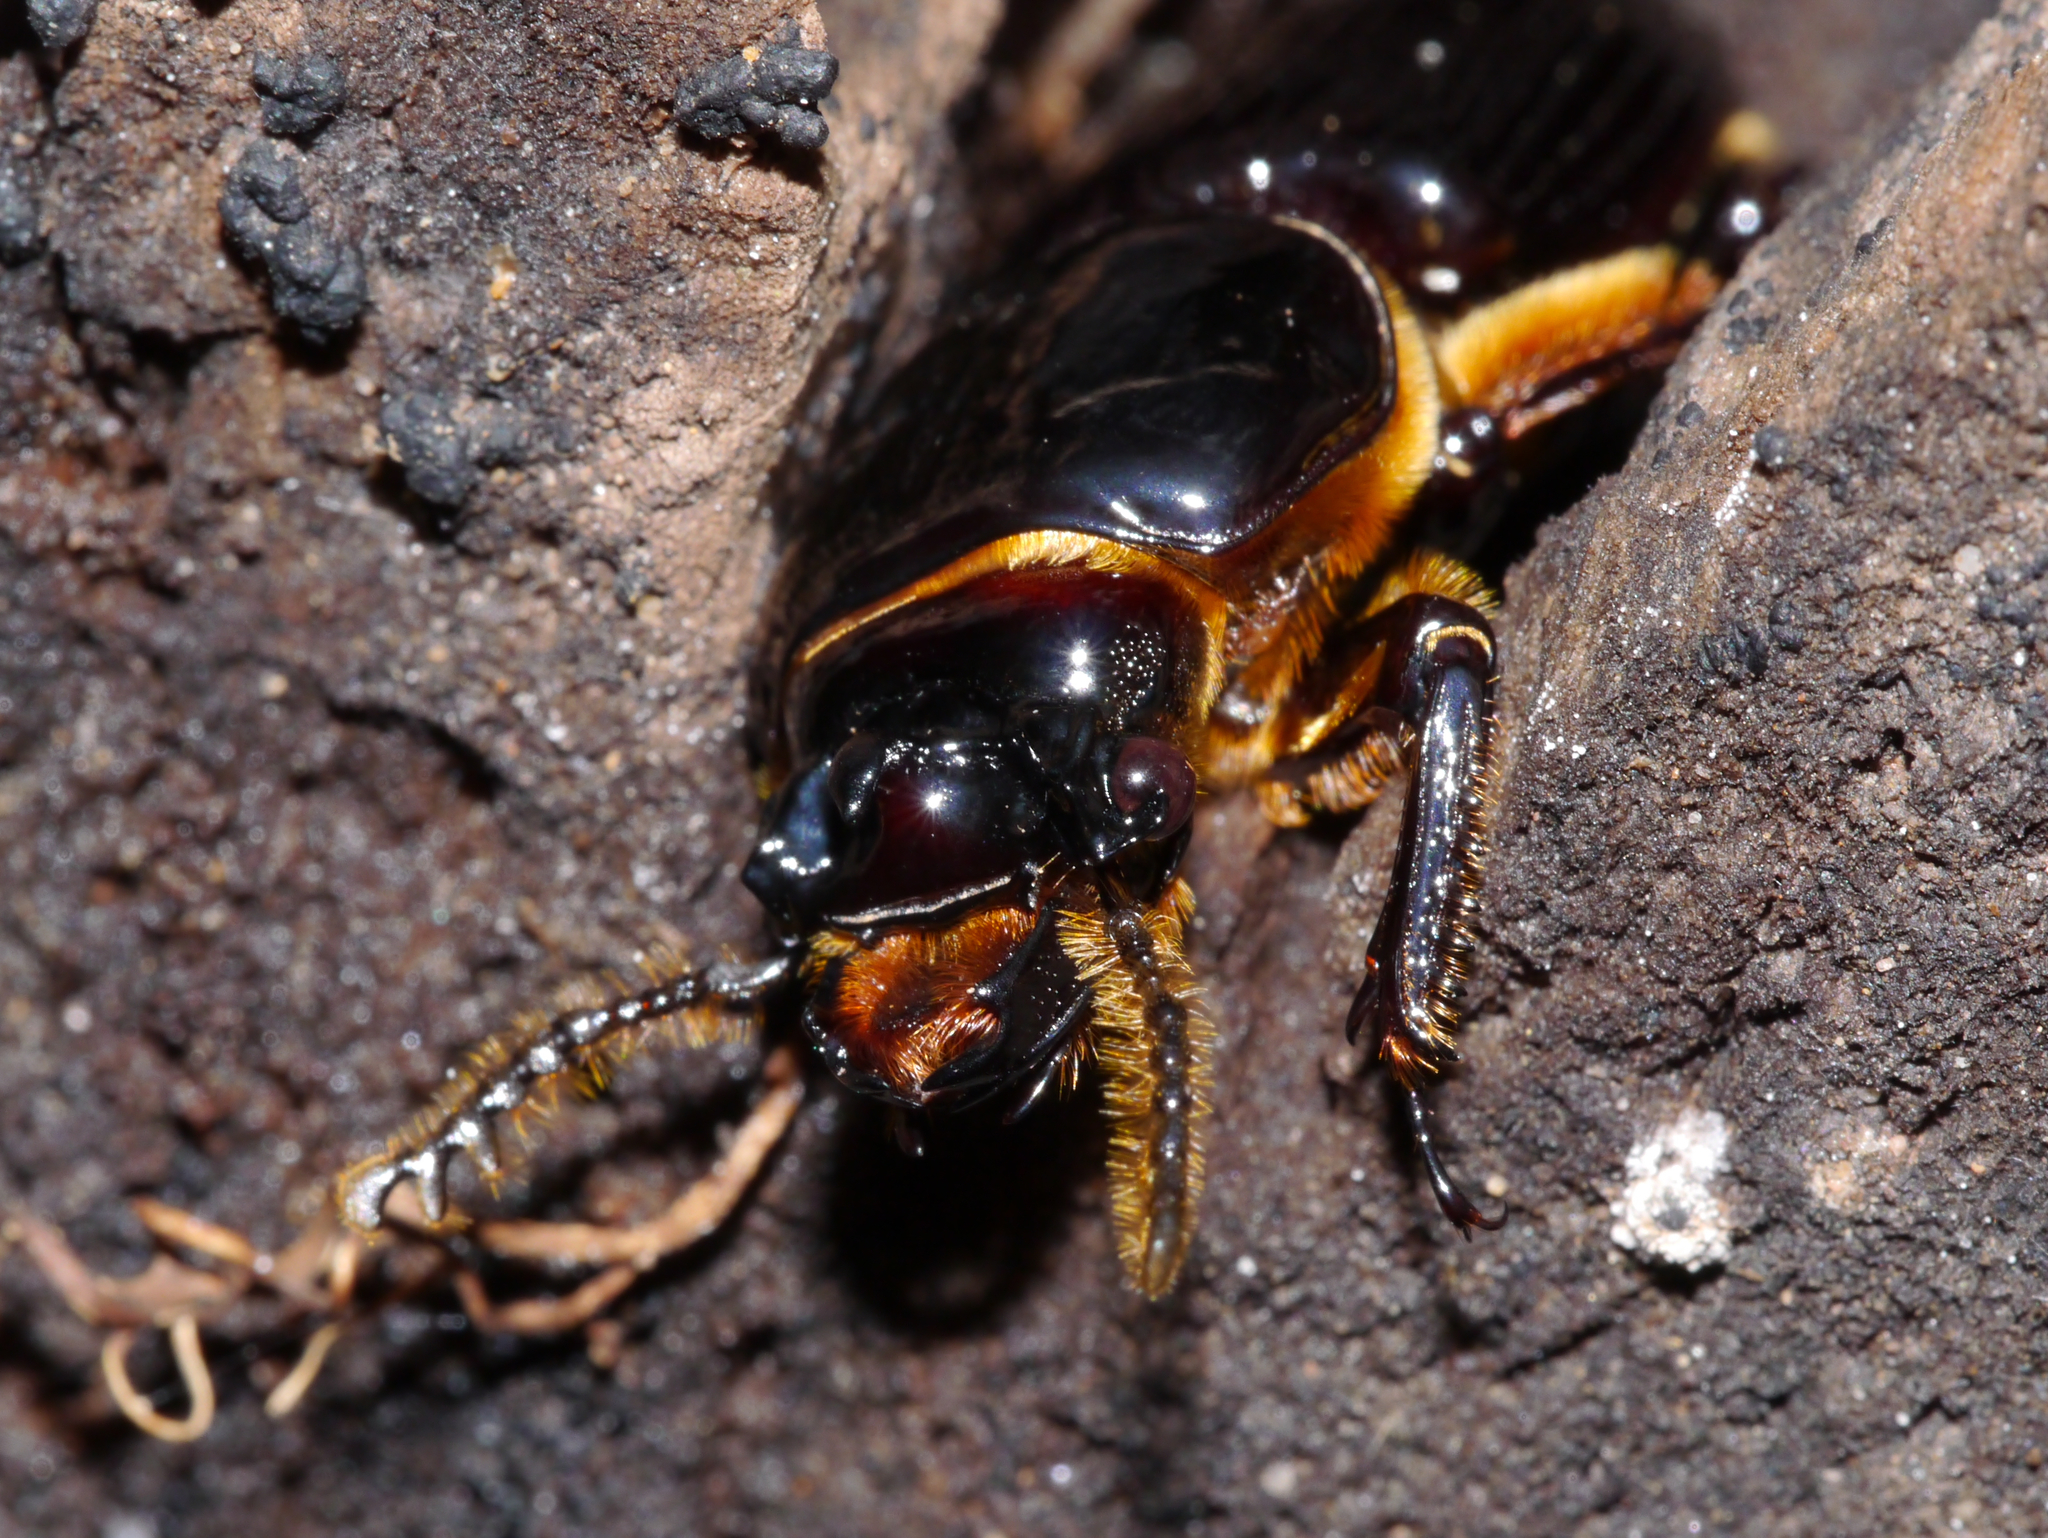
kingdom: Animalia
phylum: Arthropoda
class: Insecta
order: Coleoptera
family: Passalidae
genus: Odontotaenius
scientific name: Odontotaenius disjunctus
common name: Patent leather beetle
